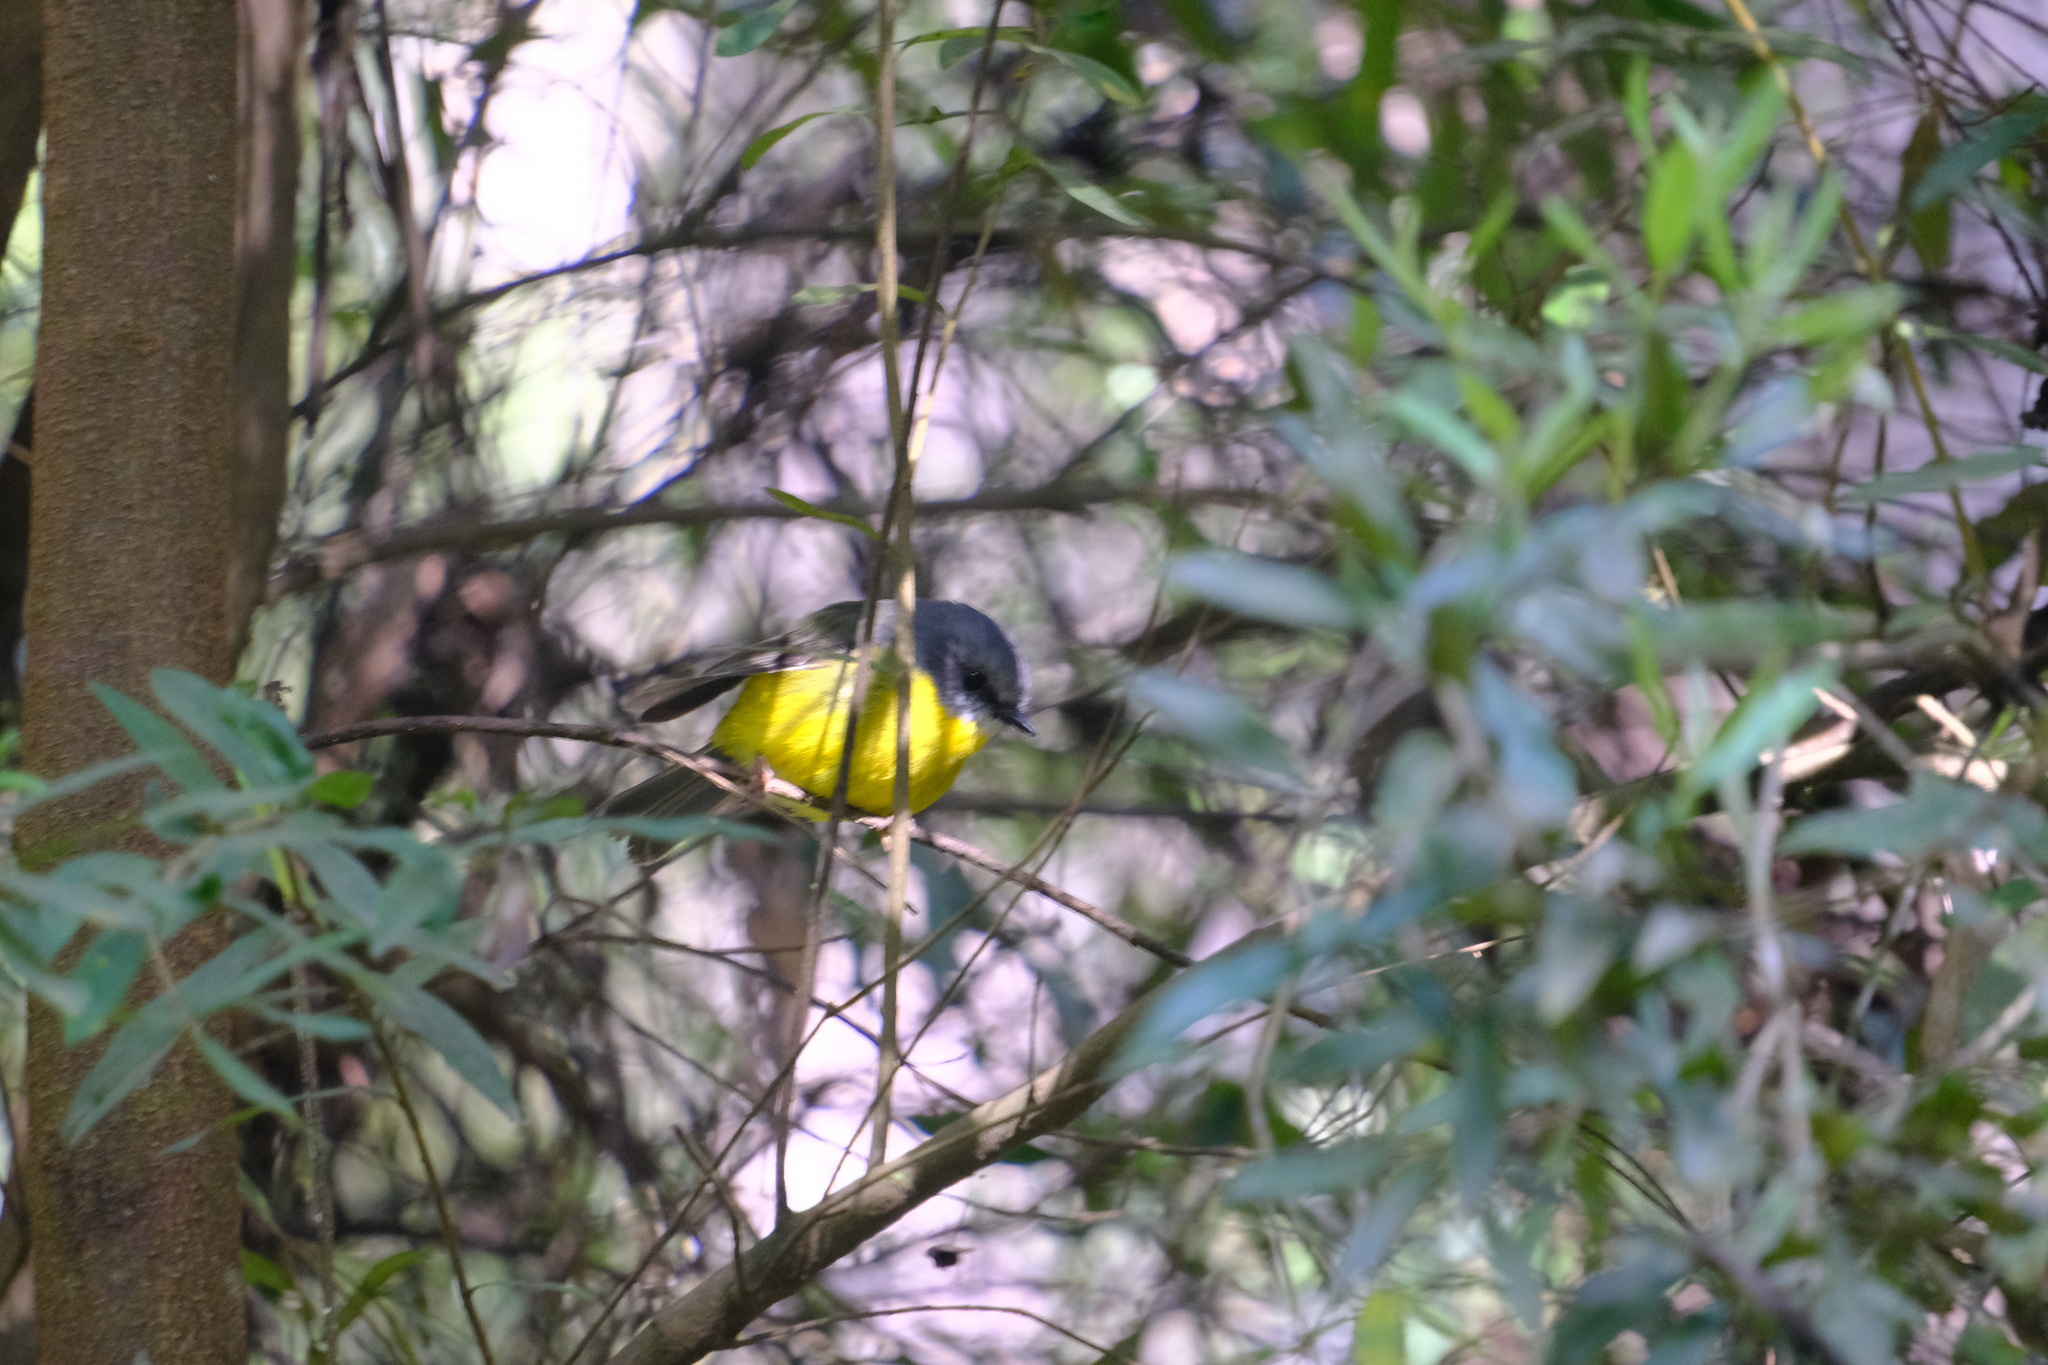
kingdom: Animalia
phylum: Chordata
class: Aves
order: Passeriformes
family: Petroicidae
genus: Eopsaltria
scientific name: Eopsaltria australis
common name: Eastern yellow robin
